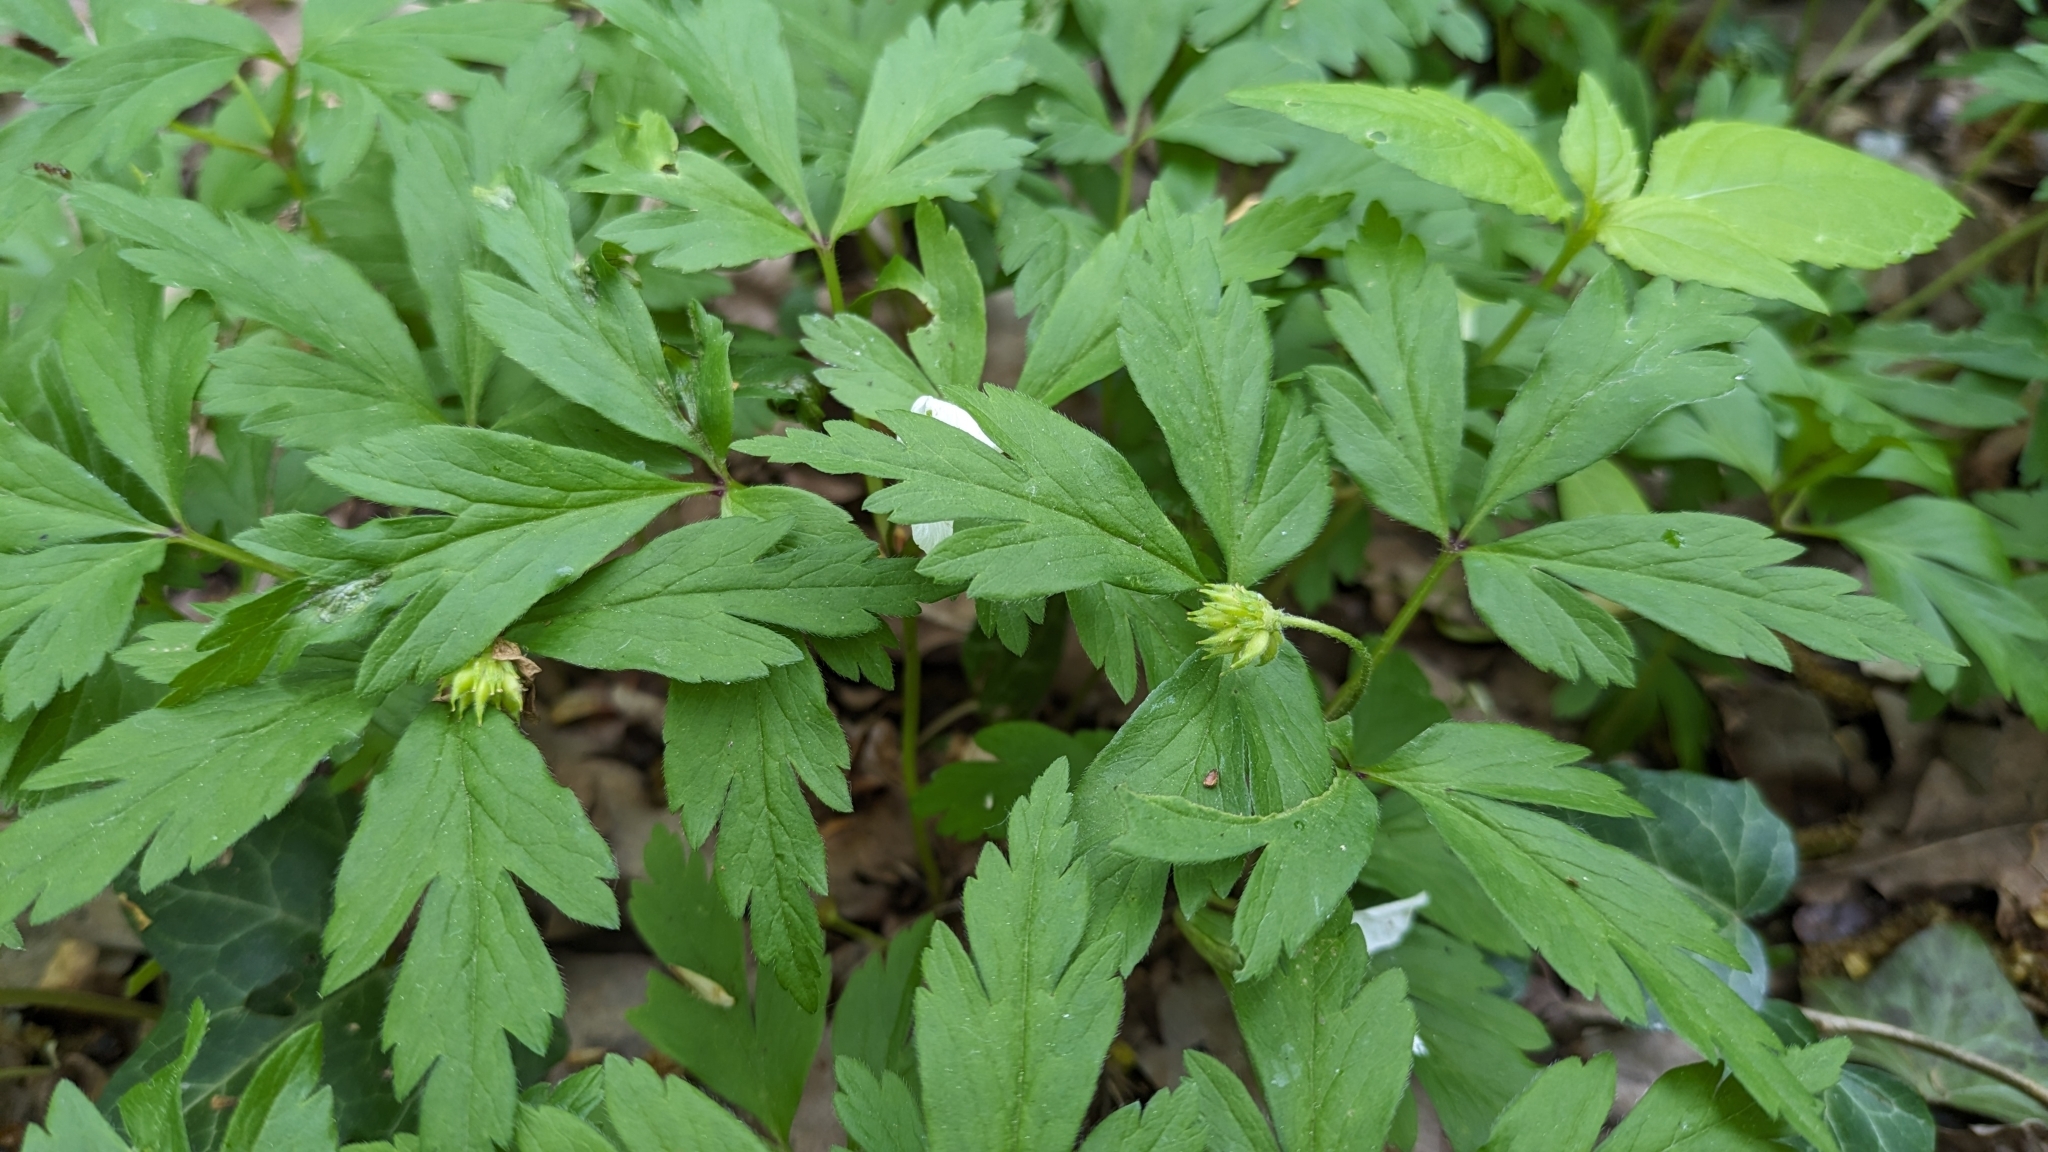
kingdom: Plantae
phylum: Tracheophyta
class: Magnoliopsida
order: Ranunculales
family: Ranunculaceae
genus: Anemone
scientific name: Anemone nemorosa
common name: Wood anemone
